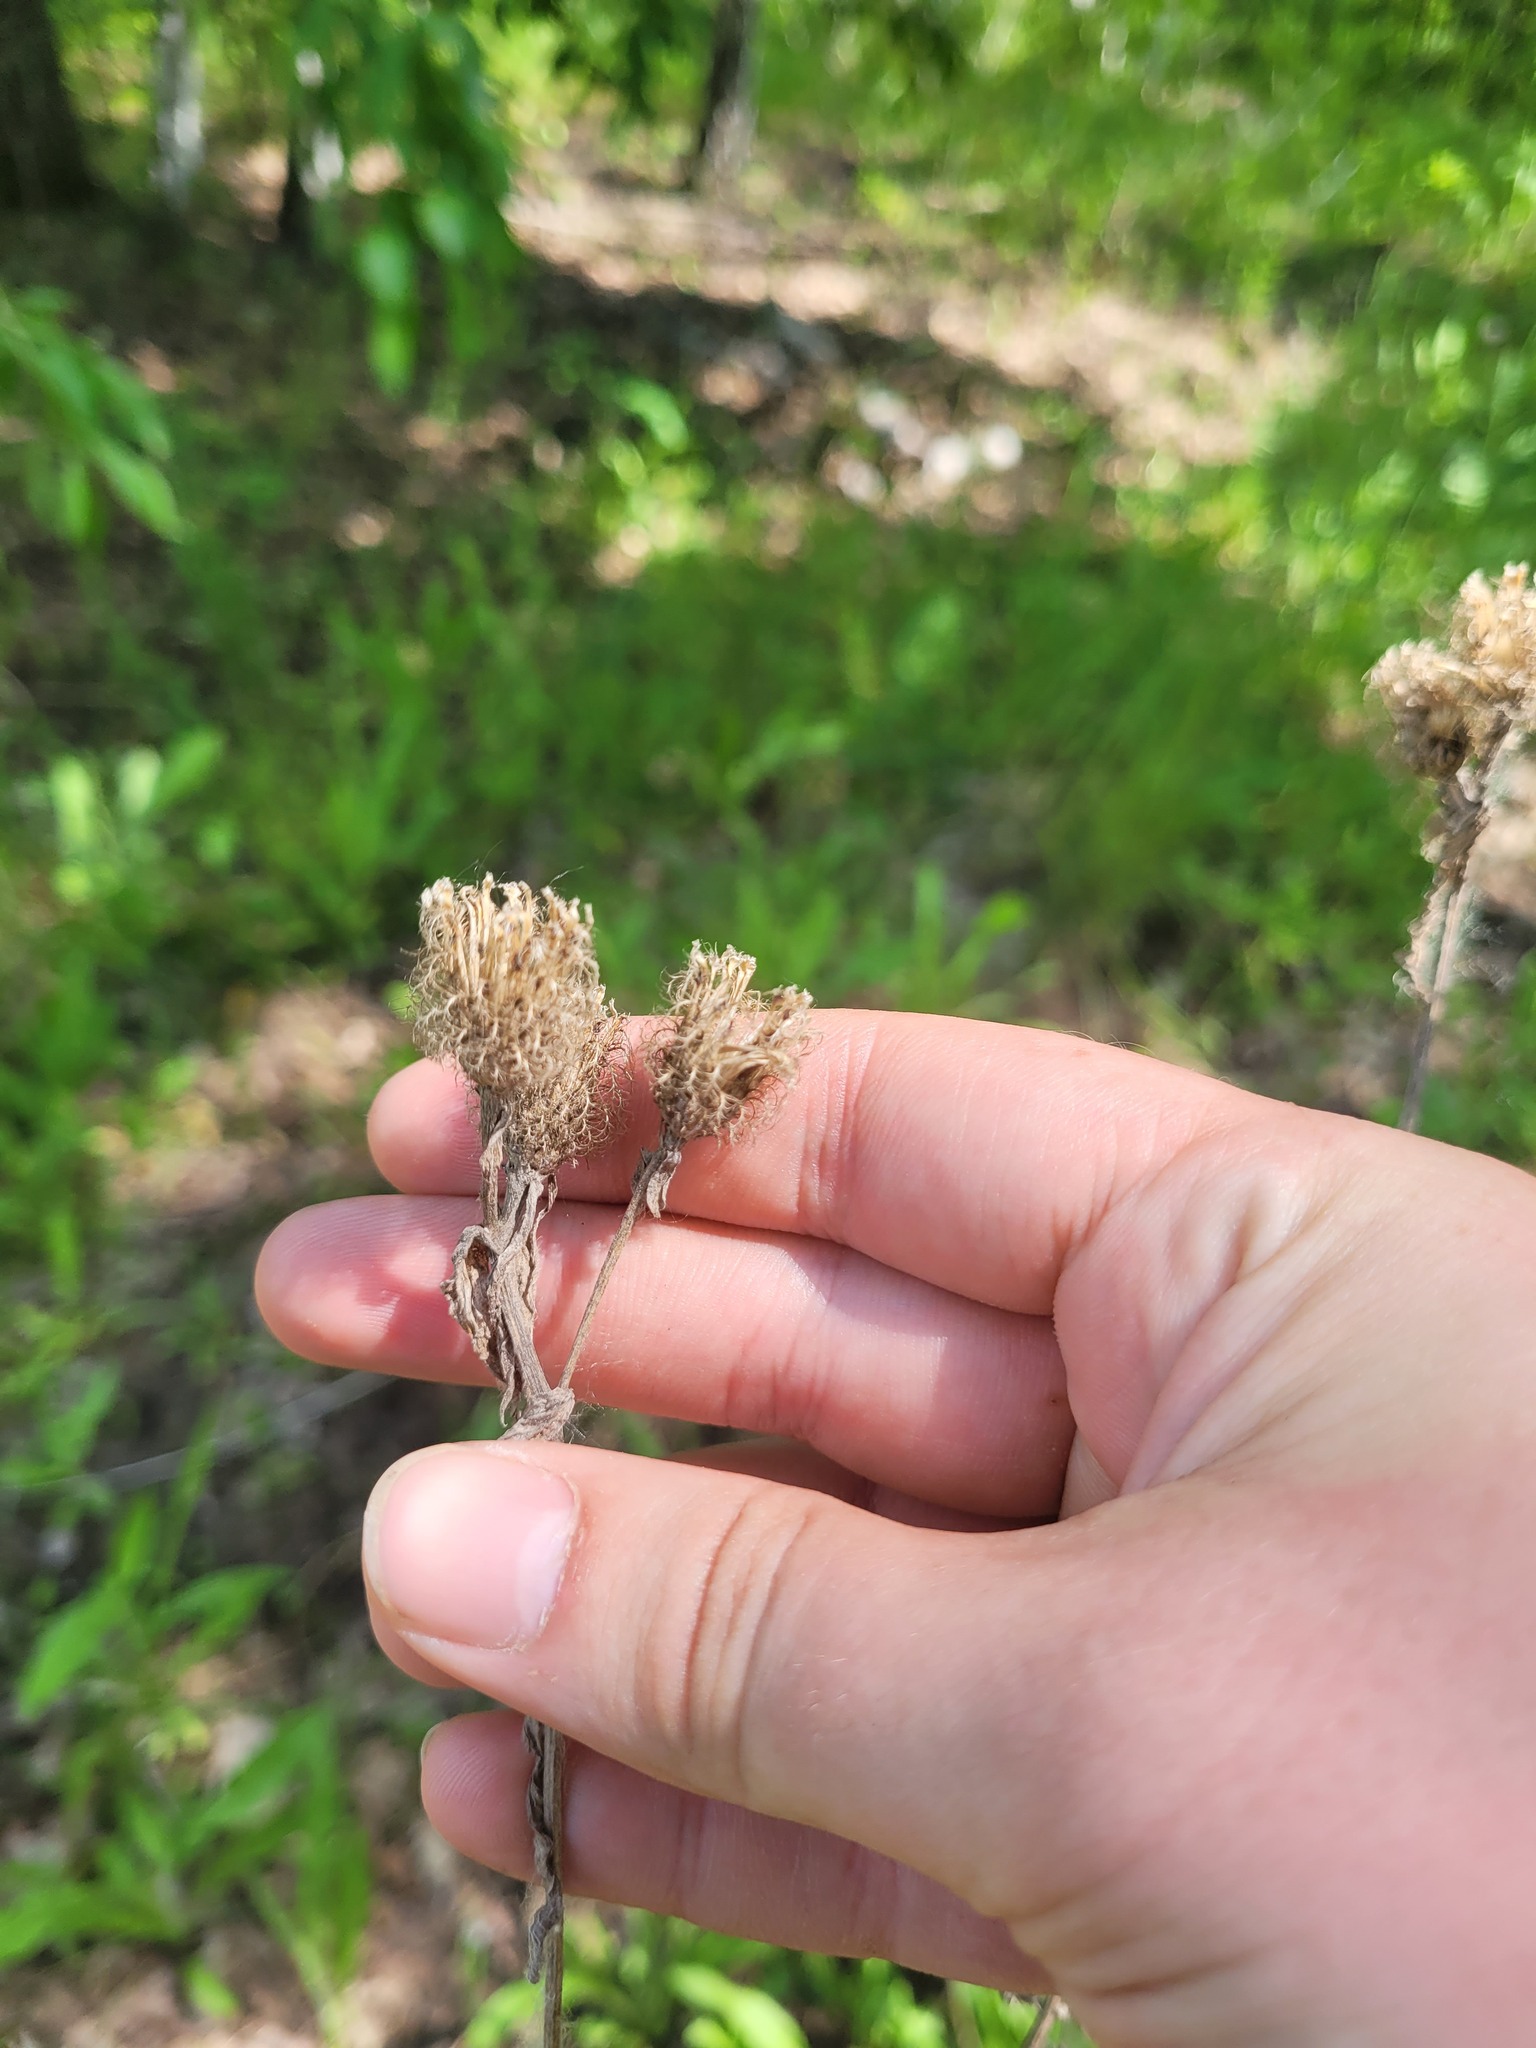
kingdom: Plantae
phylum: Tracheophyta
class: Magnoliopsida
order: Asterales
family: Asteraceae
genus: Centaurea
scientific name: Centaurea pseudophrygia
